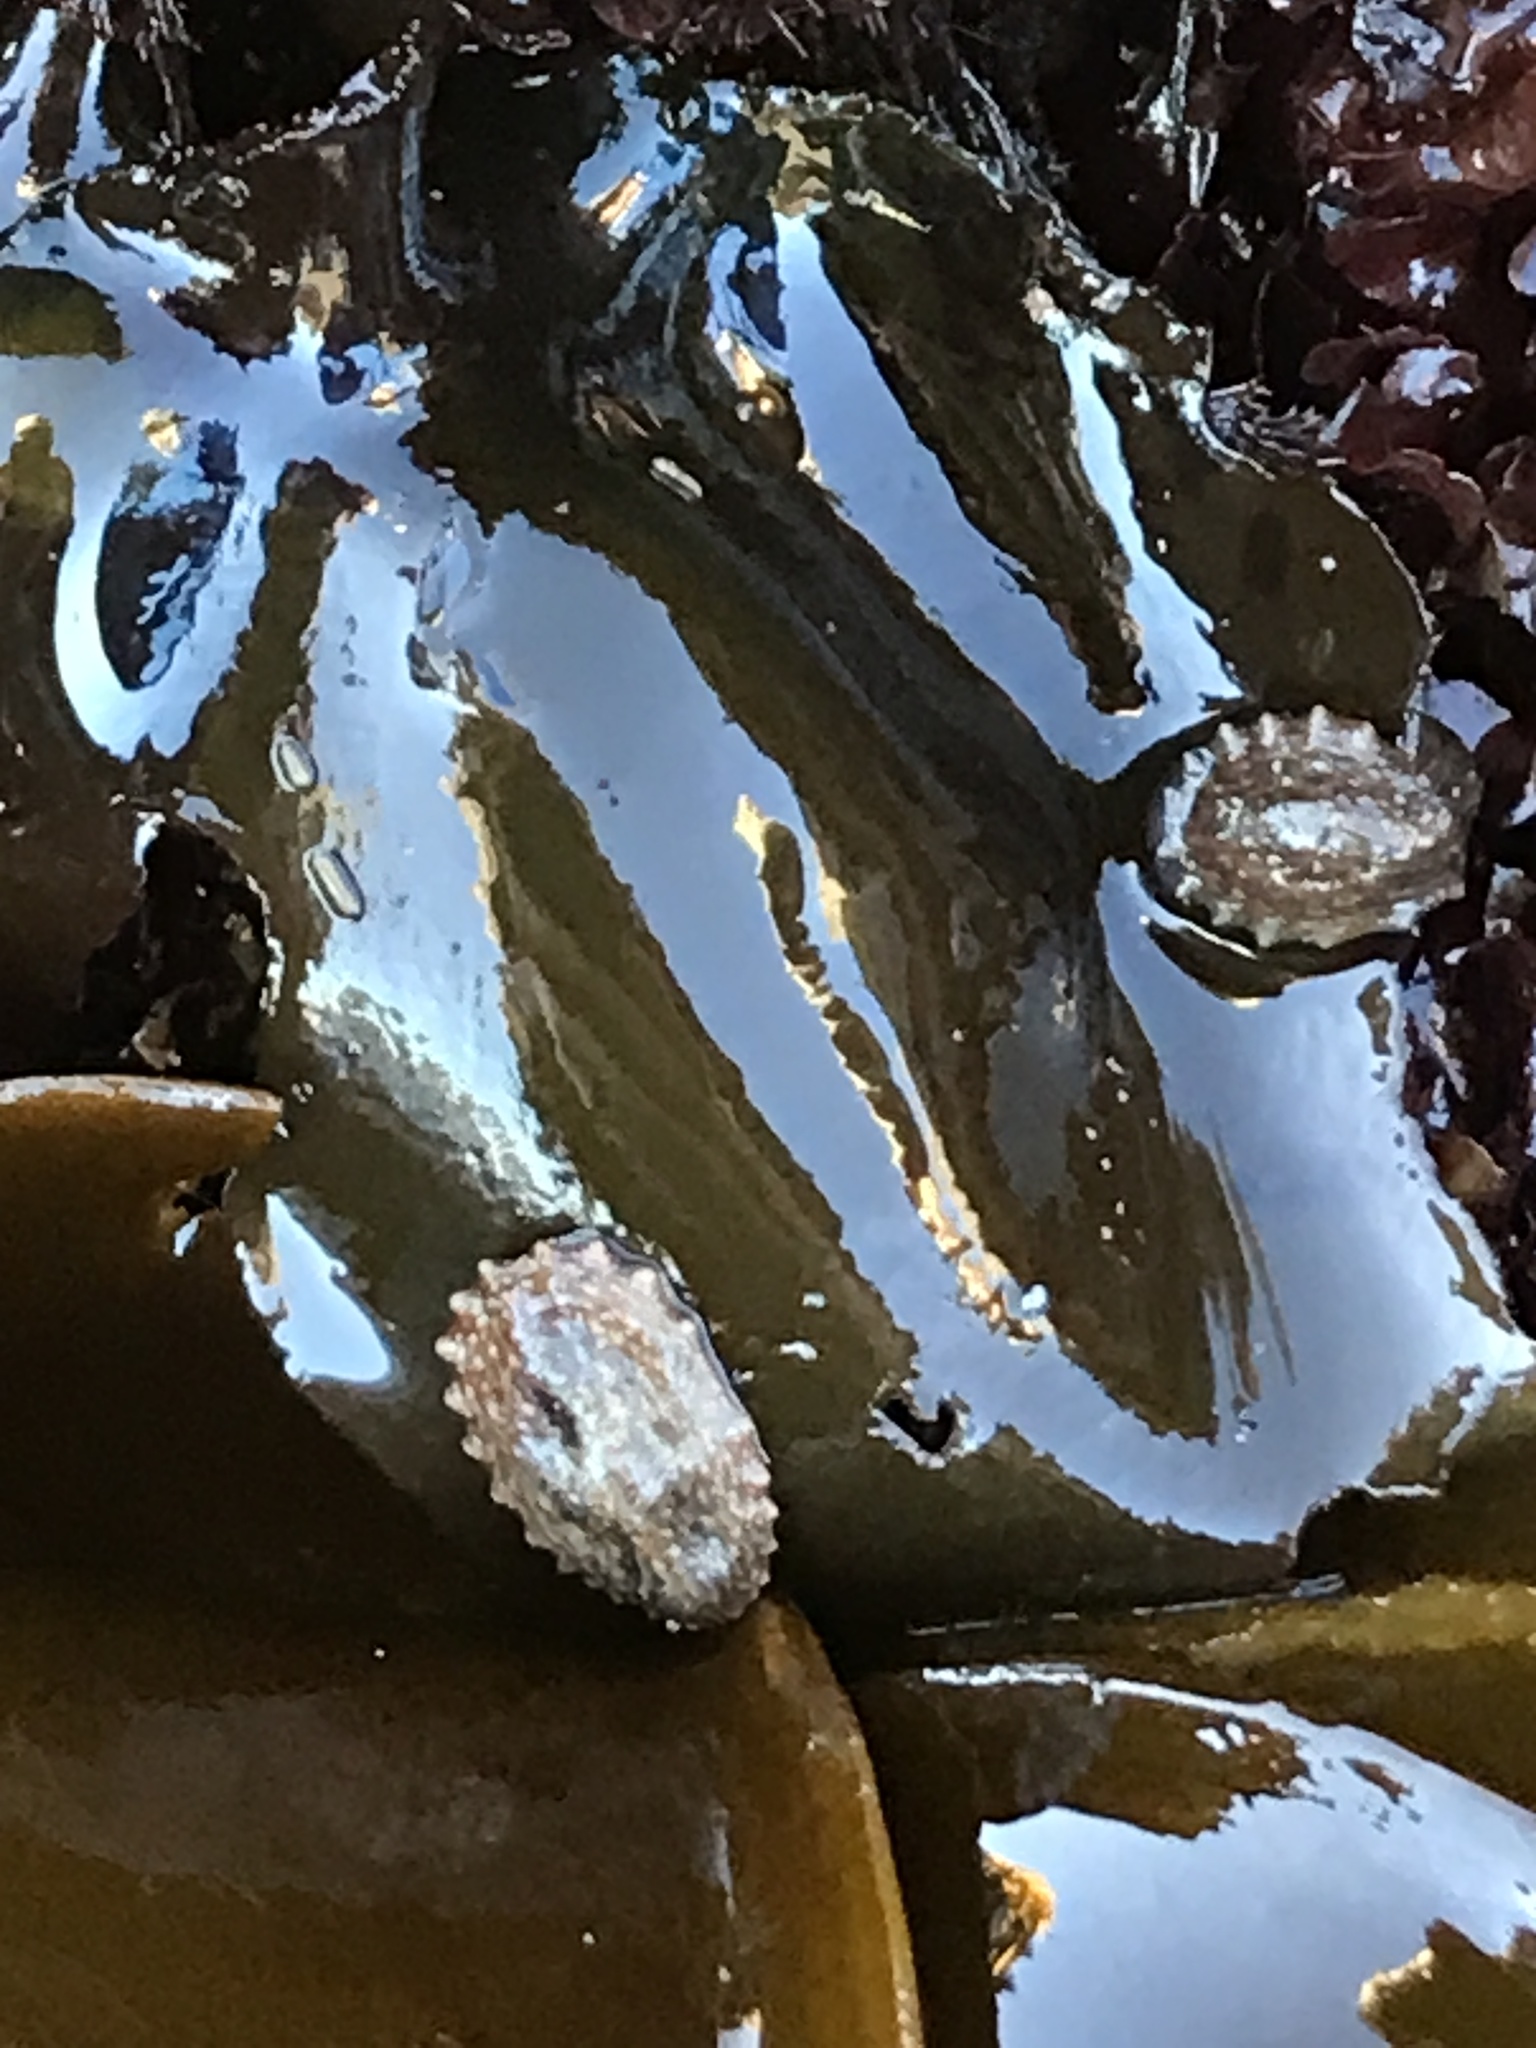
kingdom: Animalia
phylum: Mollusca
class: Gastropoda
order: Systellommatophora
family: Onchidiidae
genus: Onchidella
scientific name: Onchidella carpenteri
